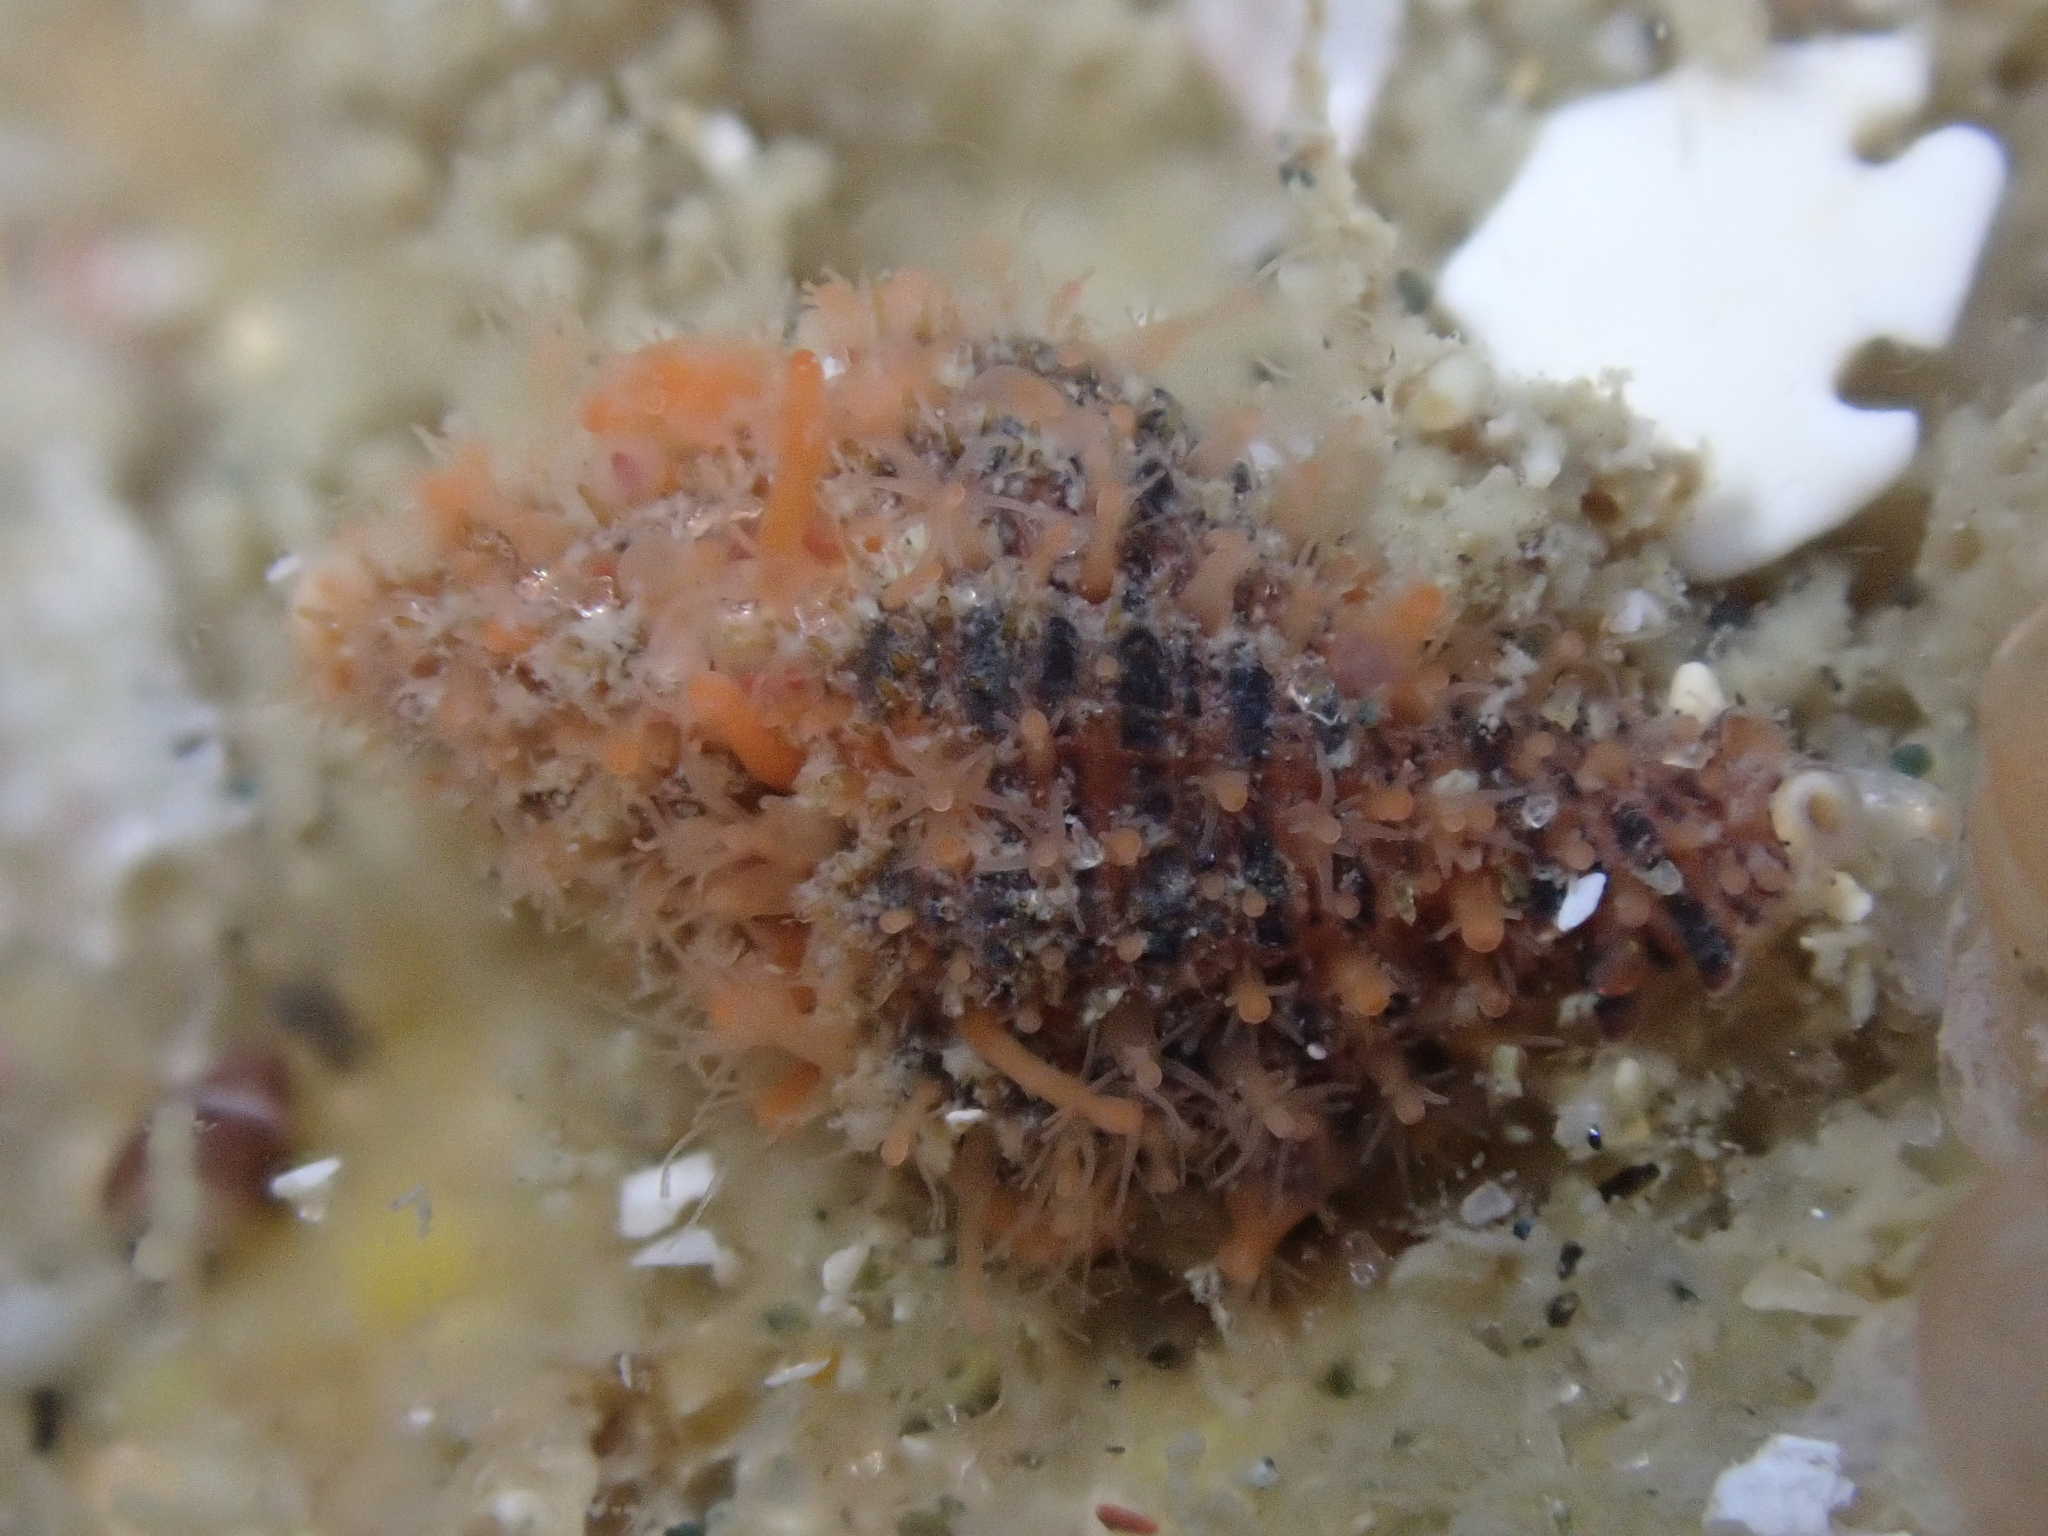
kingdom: Animalia
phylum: Mollusca
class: Gastropoda
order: Neogastropoda
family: Muricidae
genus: Murexsul
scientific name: Murexsul mariae
